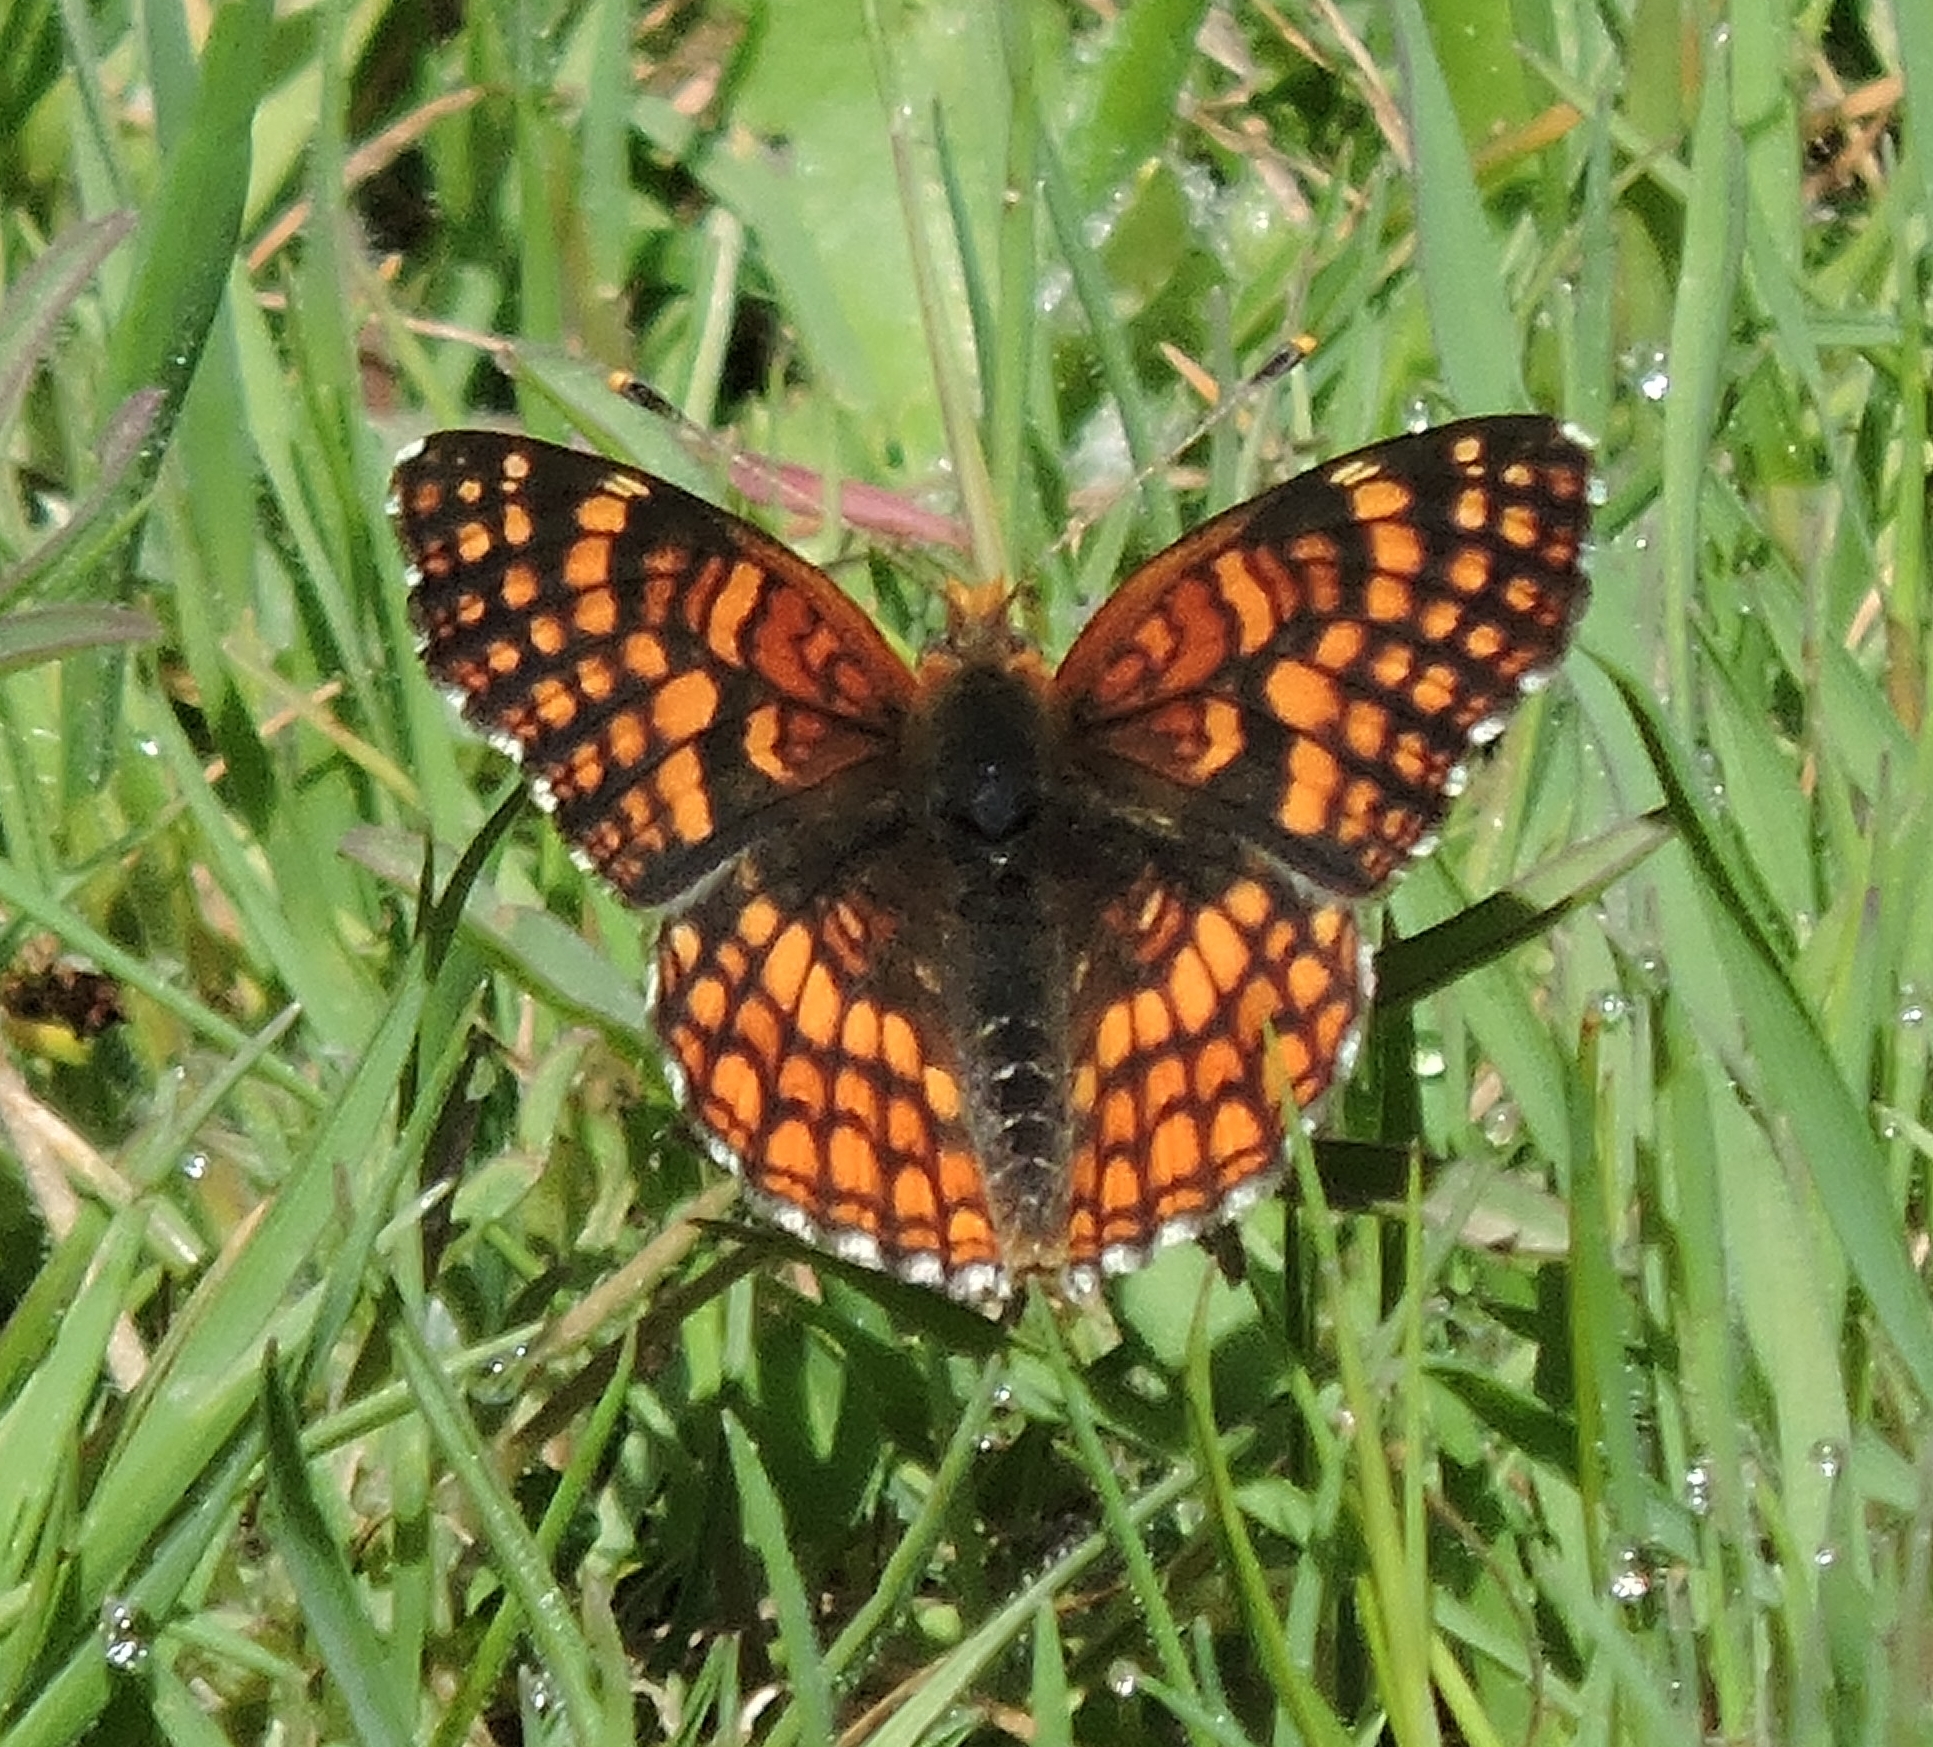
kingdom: Animalia
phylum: Arthropoda
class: Insecta
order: Lepidoptera
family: Nymphalidae
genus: Chlosyne
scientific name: Chlosyne palla
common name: Northern checkerspot
